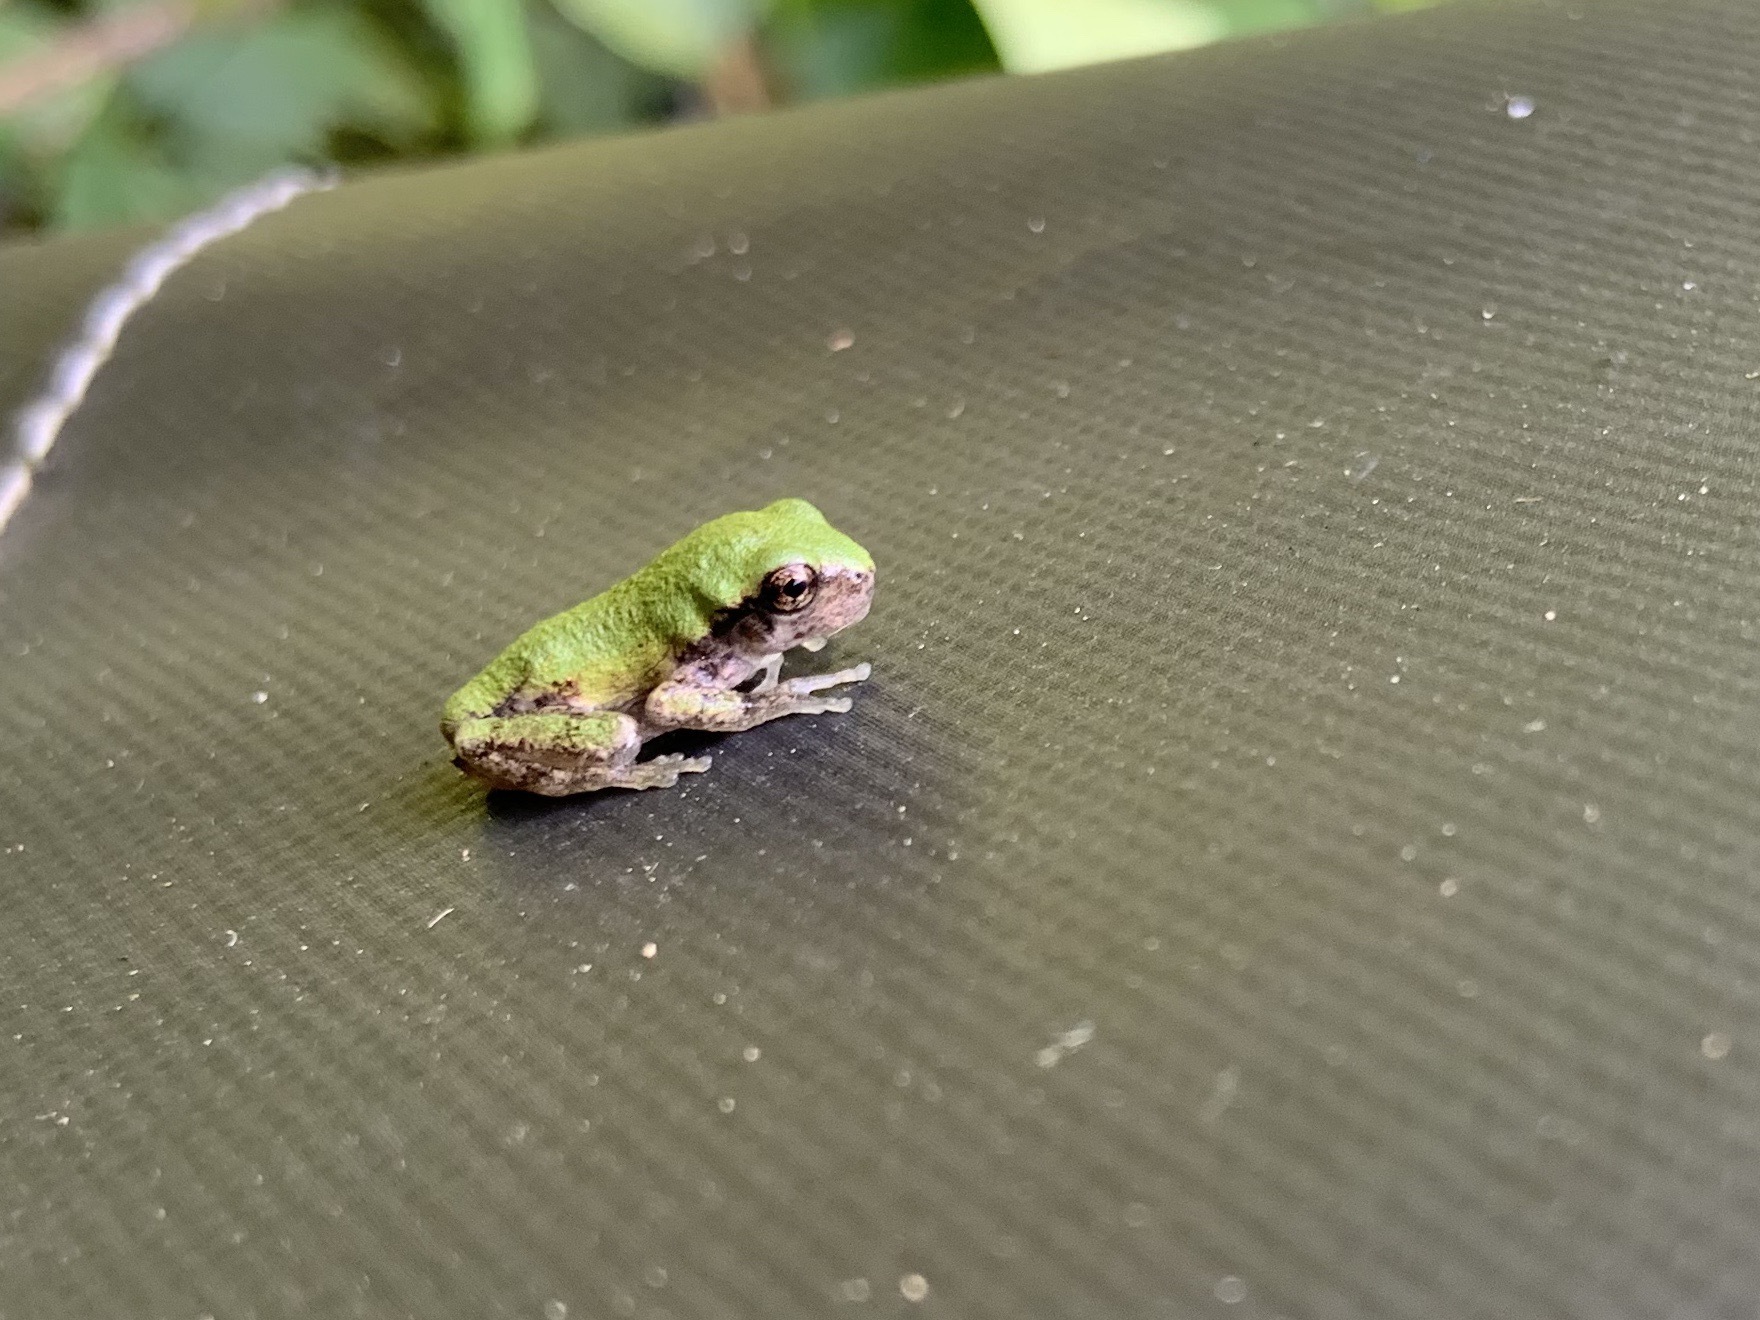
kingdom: Animalia
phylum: Chordata
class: Amphibia
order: Anura
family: Hylidae
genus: Dryophytes
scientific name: Dryophytes versicolor
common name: Gray treefrog
